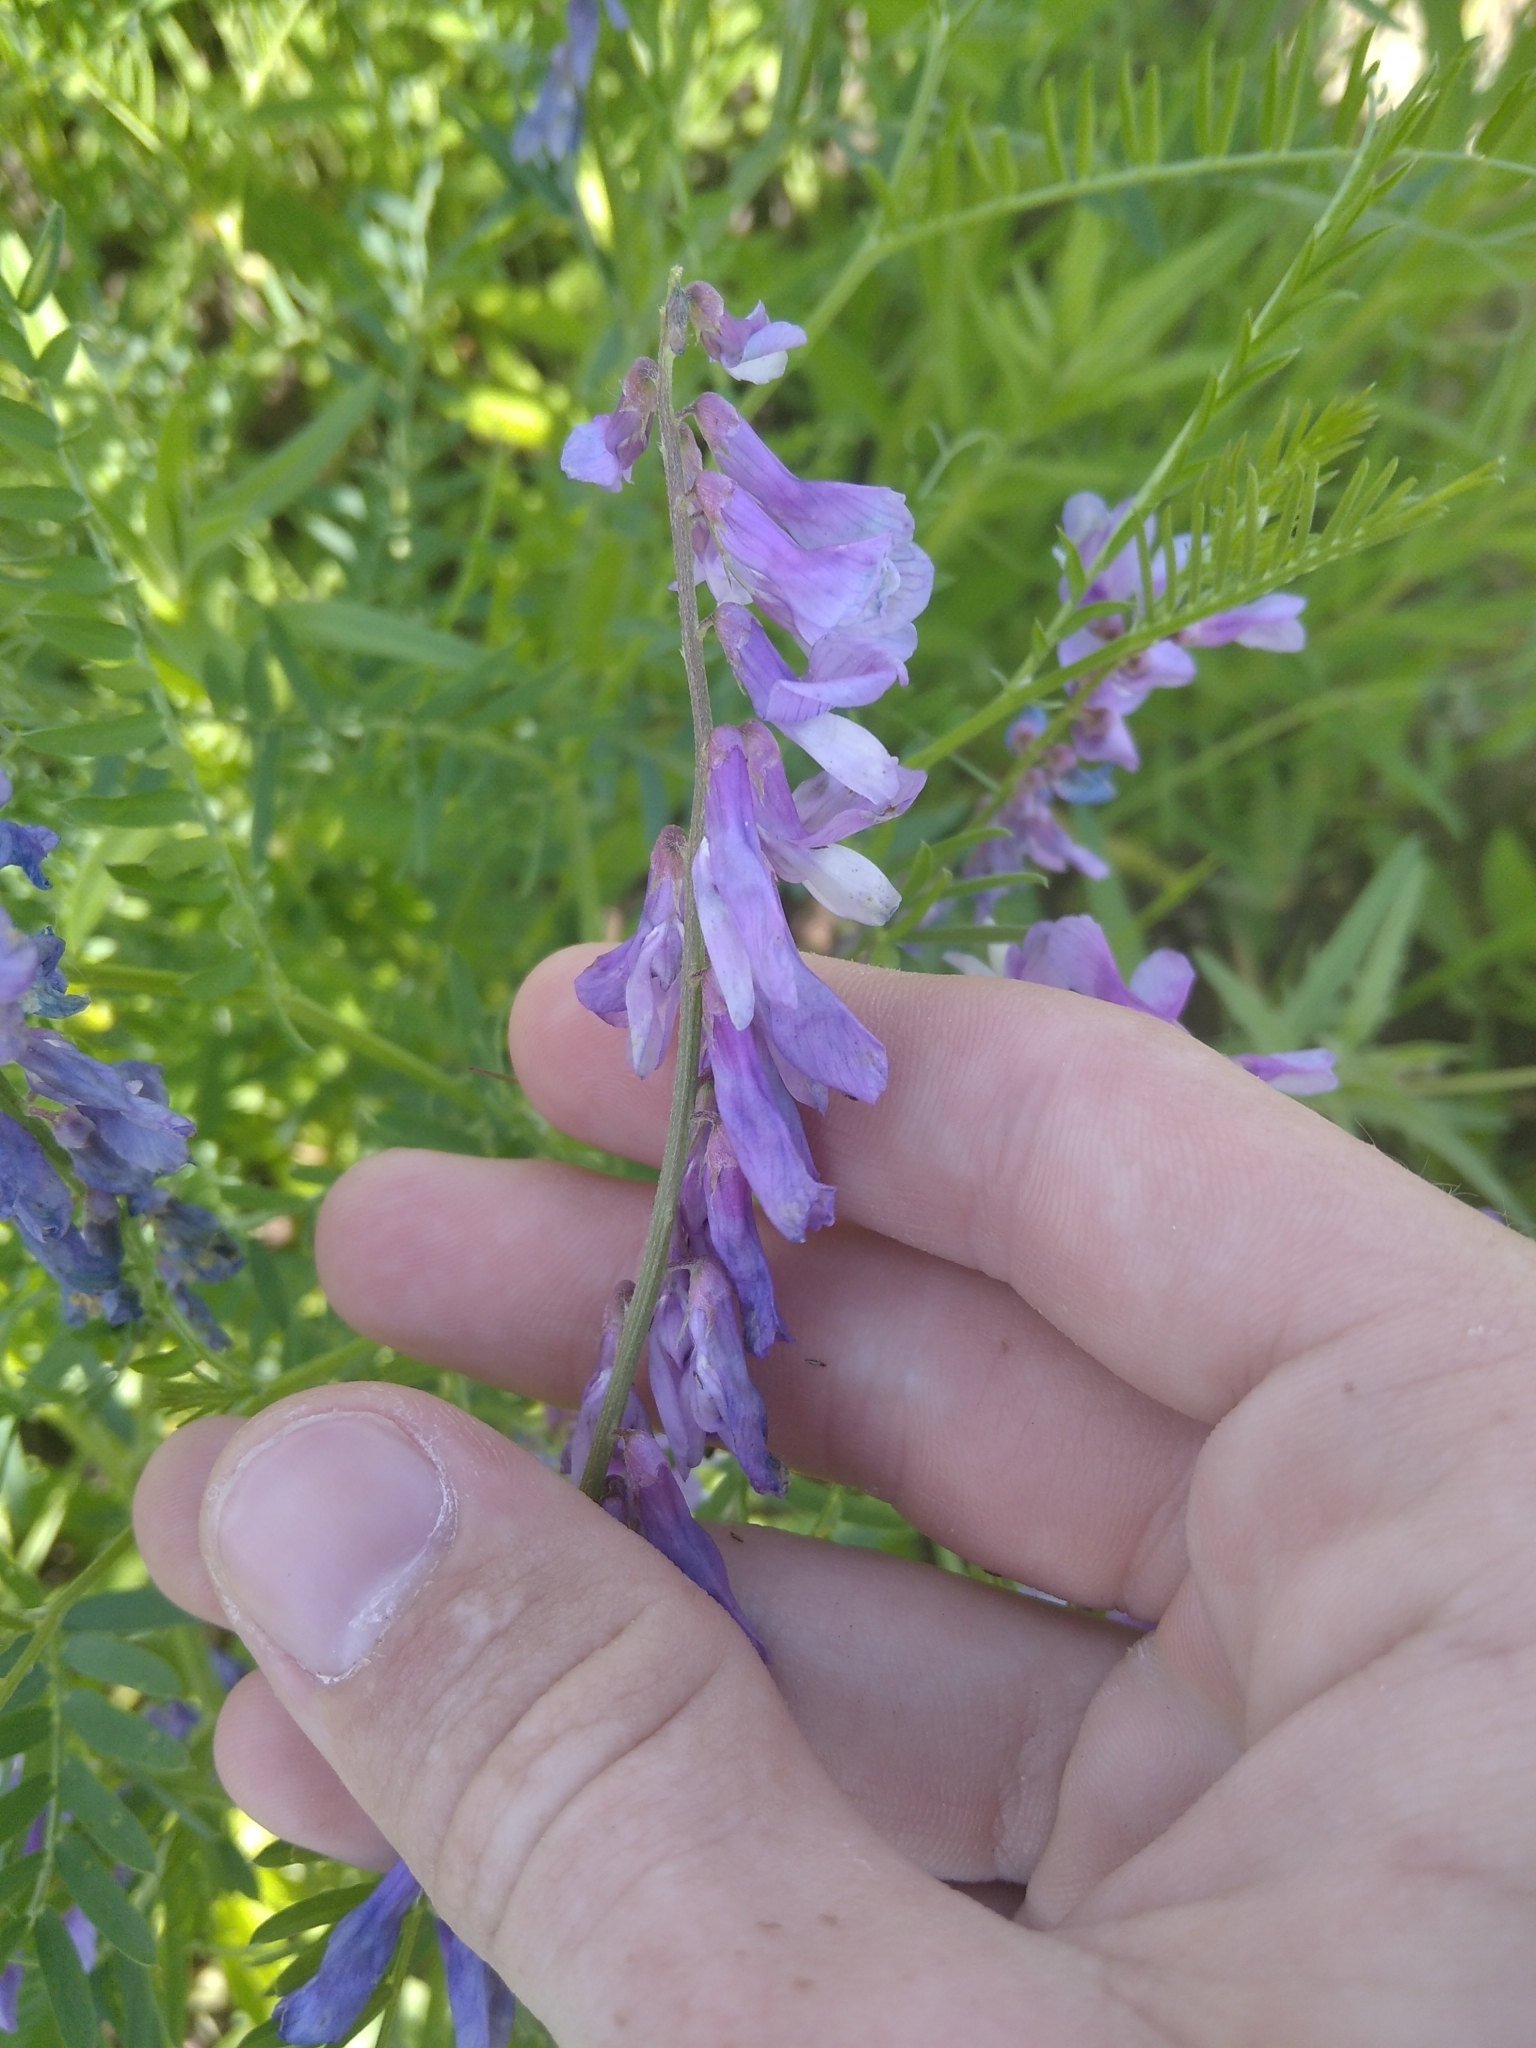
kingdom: Plantae
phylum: Tracheophyta
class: Magnoliopsida
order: Fabales
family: Fabaceae
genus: Vicia
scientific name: Vicia tenuifolia
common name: Fine-leaved vetch
